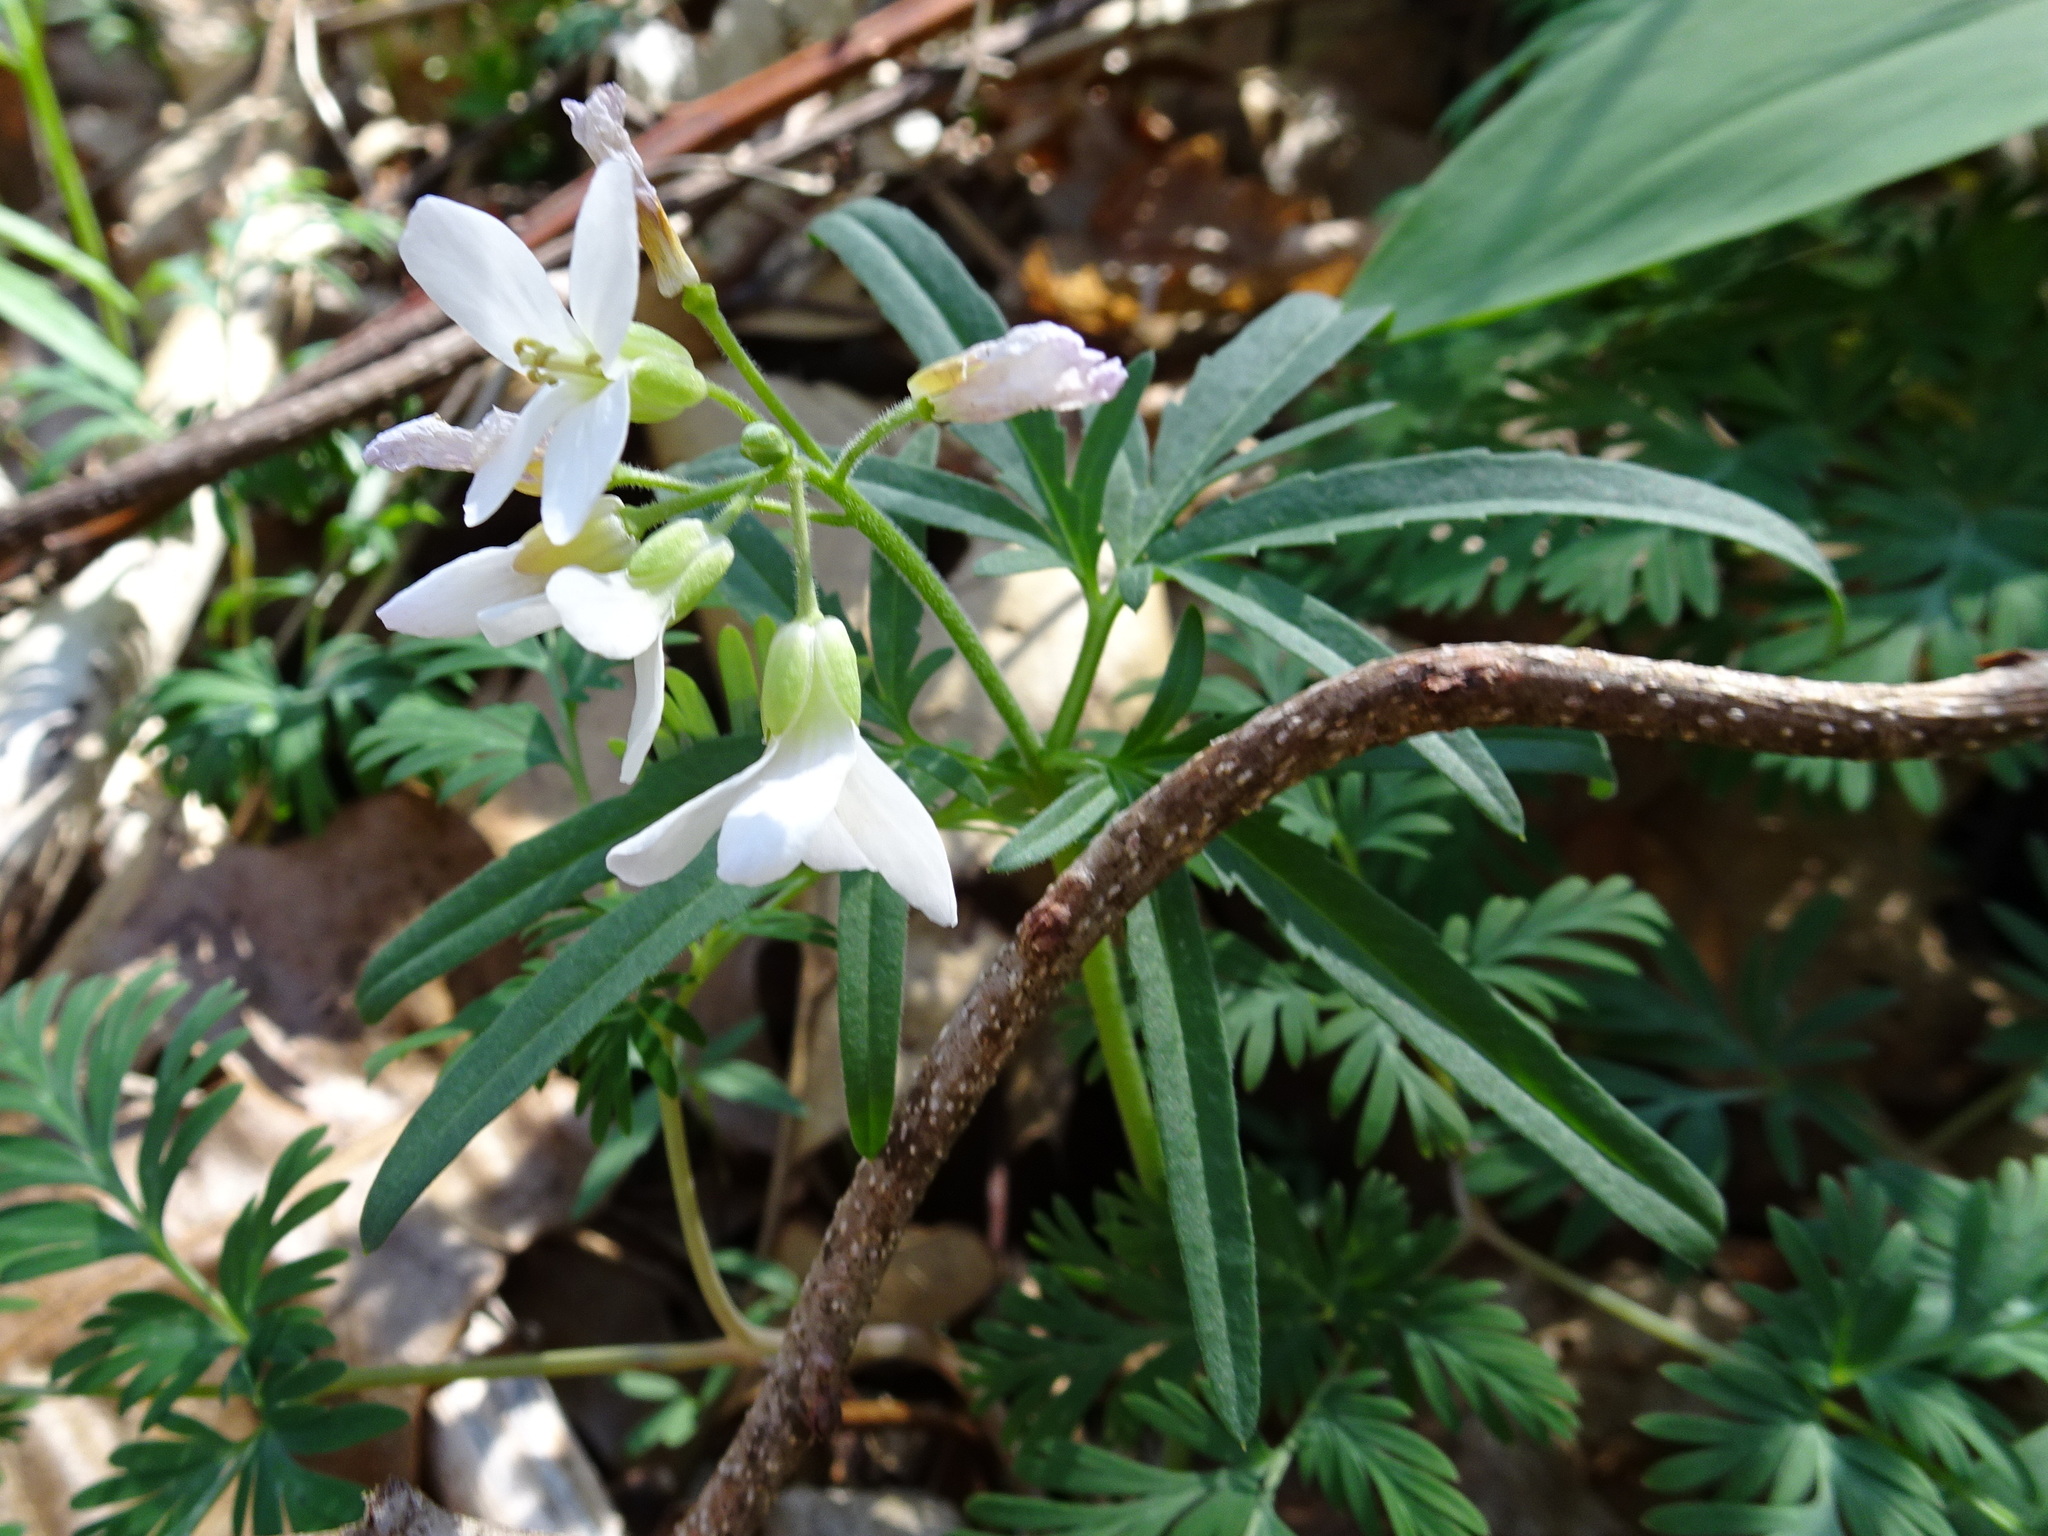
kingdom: Plantae
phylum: Tracheophyta
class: Magnoliopsida
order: Brassicales
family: Brassicaceae
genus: Cardamine
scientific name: Cardamine concatenata
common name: Cut-leaf toothcup
